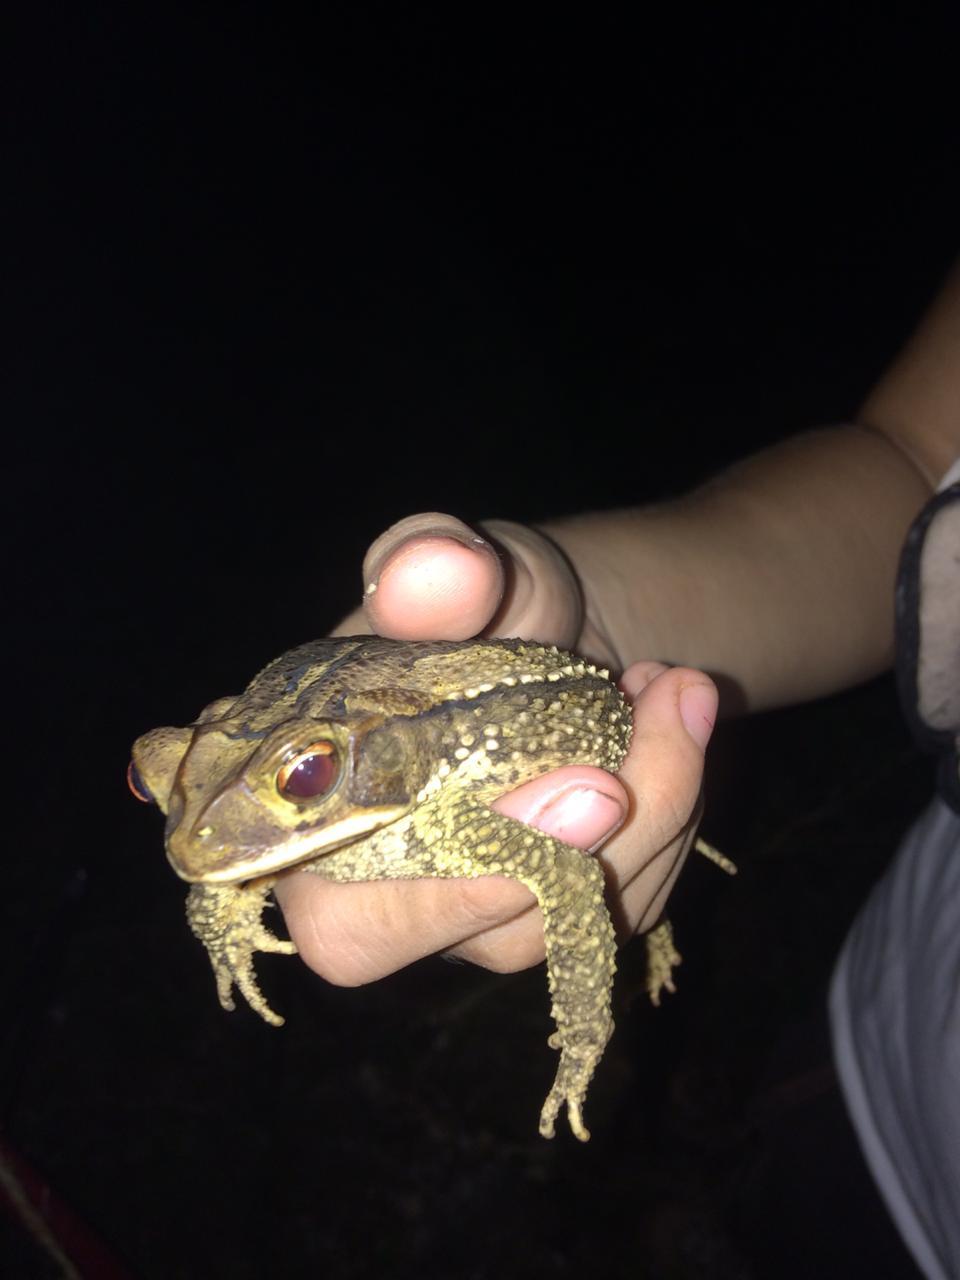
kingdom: Animalia
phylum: Chordata
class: Amphibia
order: Anura
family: Bufonidae
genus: Incilius
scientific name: Incilius valliceps
